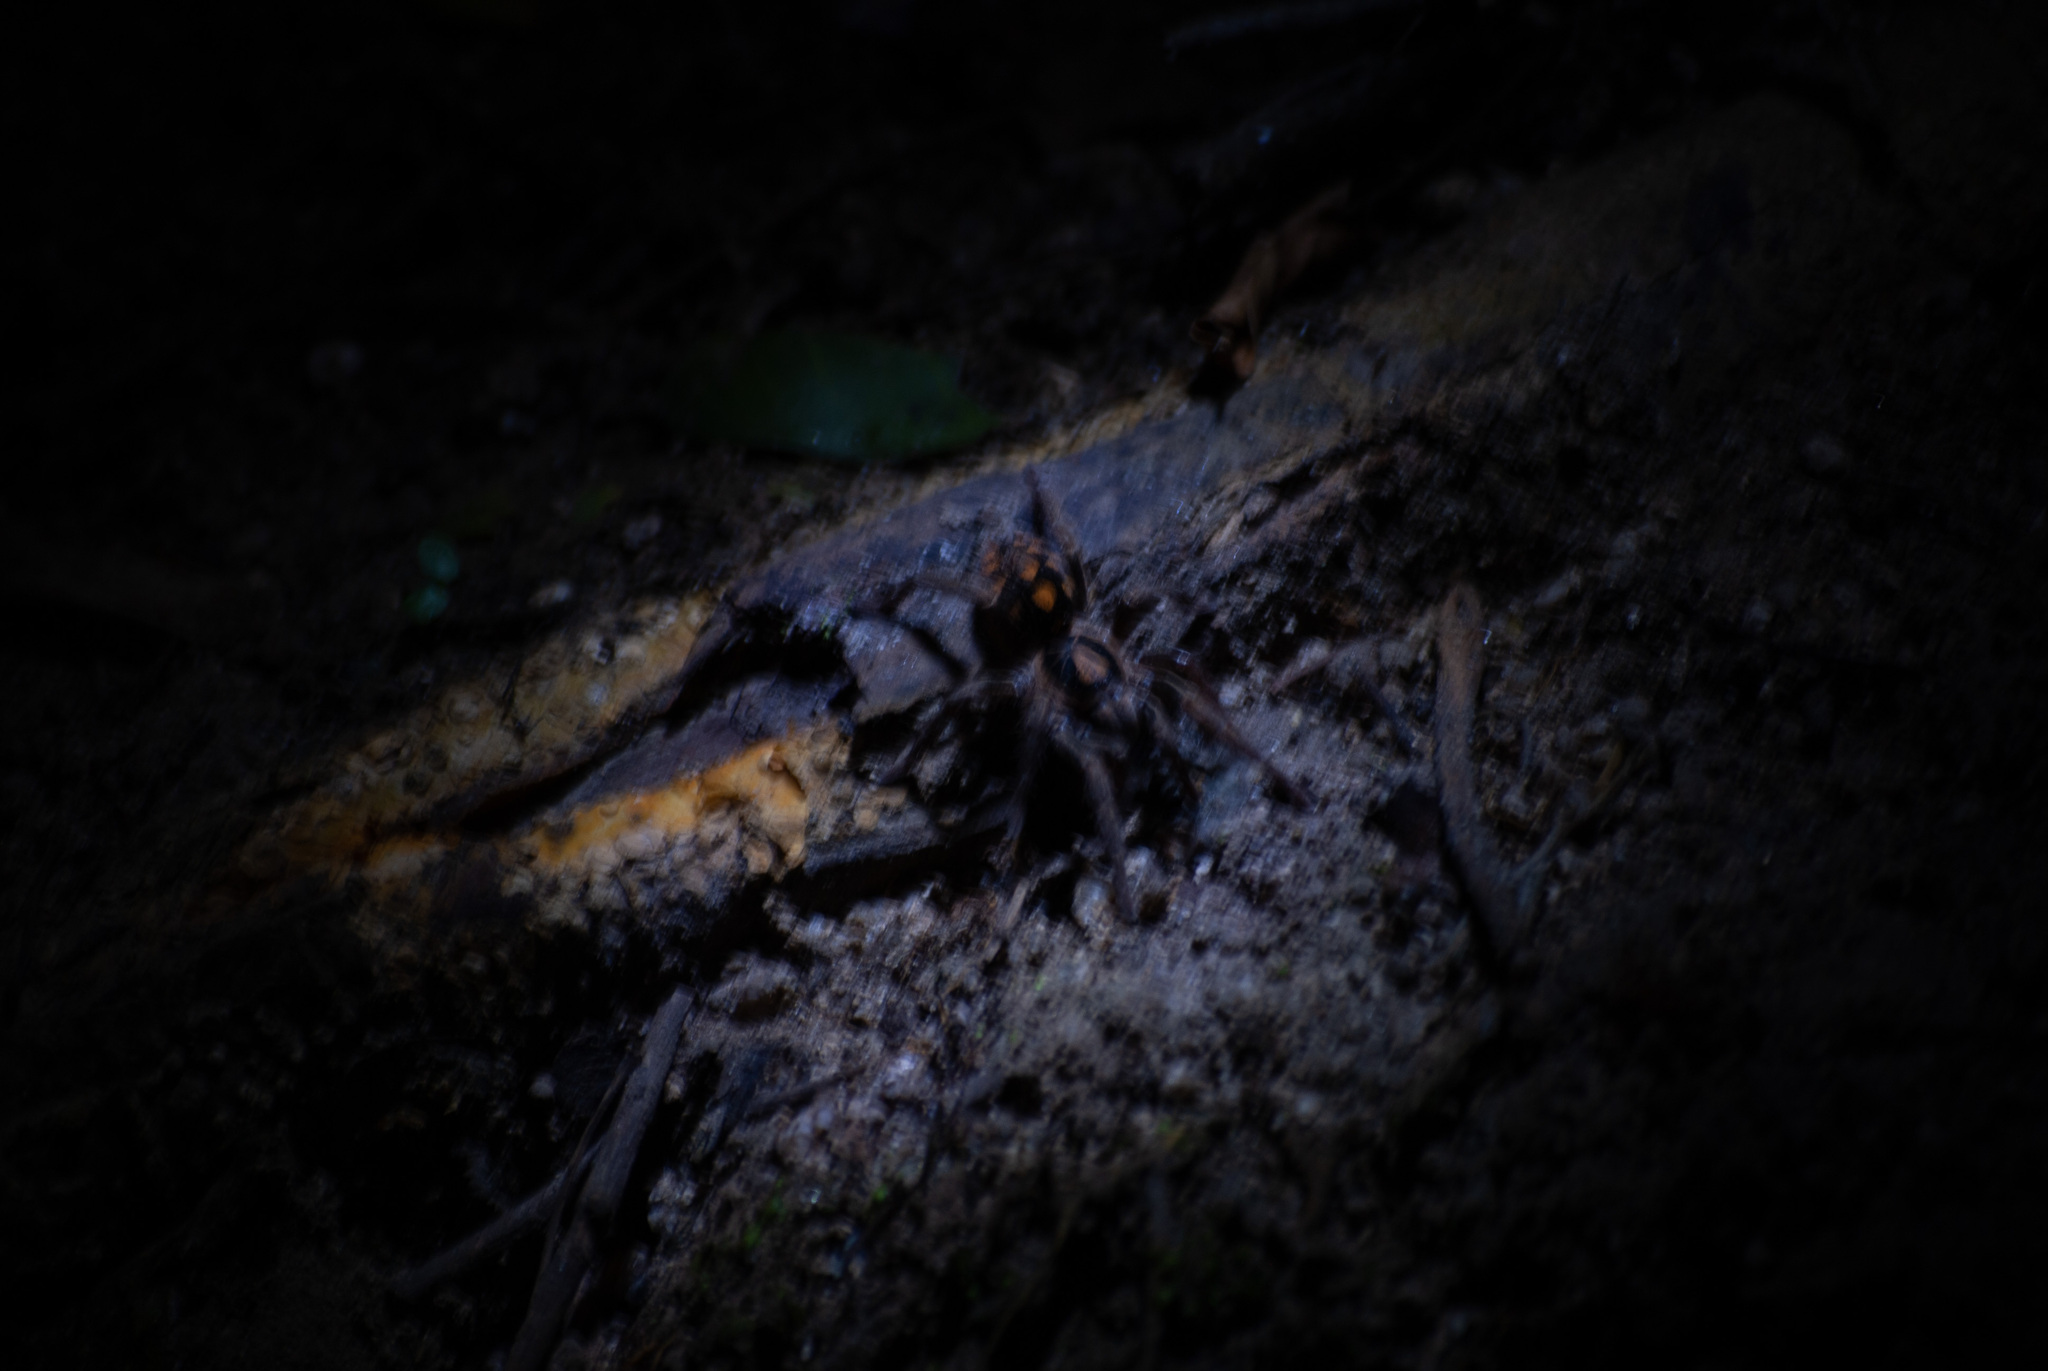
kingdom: Animalia
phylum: Arthropoda
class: Arachnida
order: Araneae
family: Theraphosidae
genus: Hapalopus
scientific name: Hapalopus formosus
